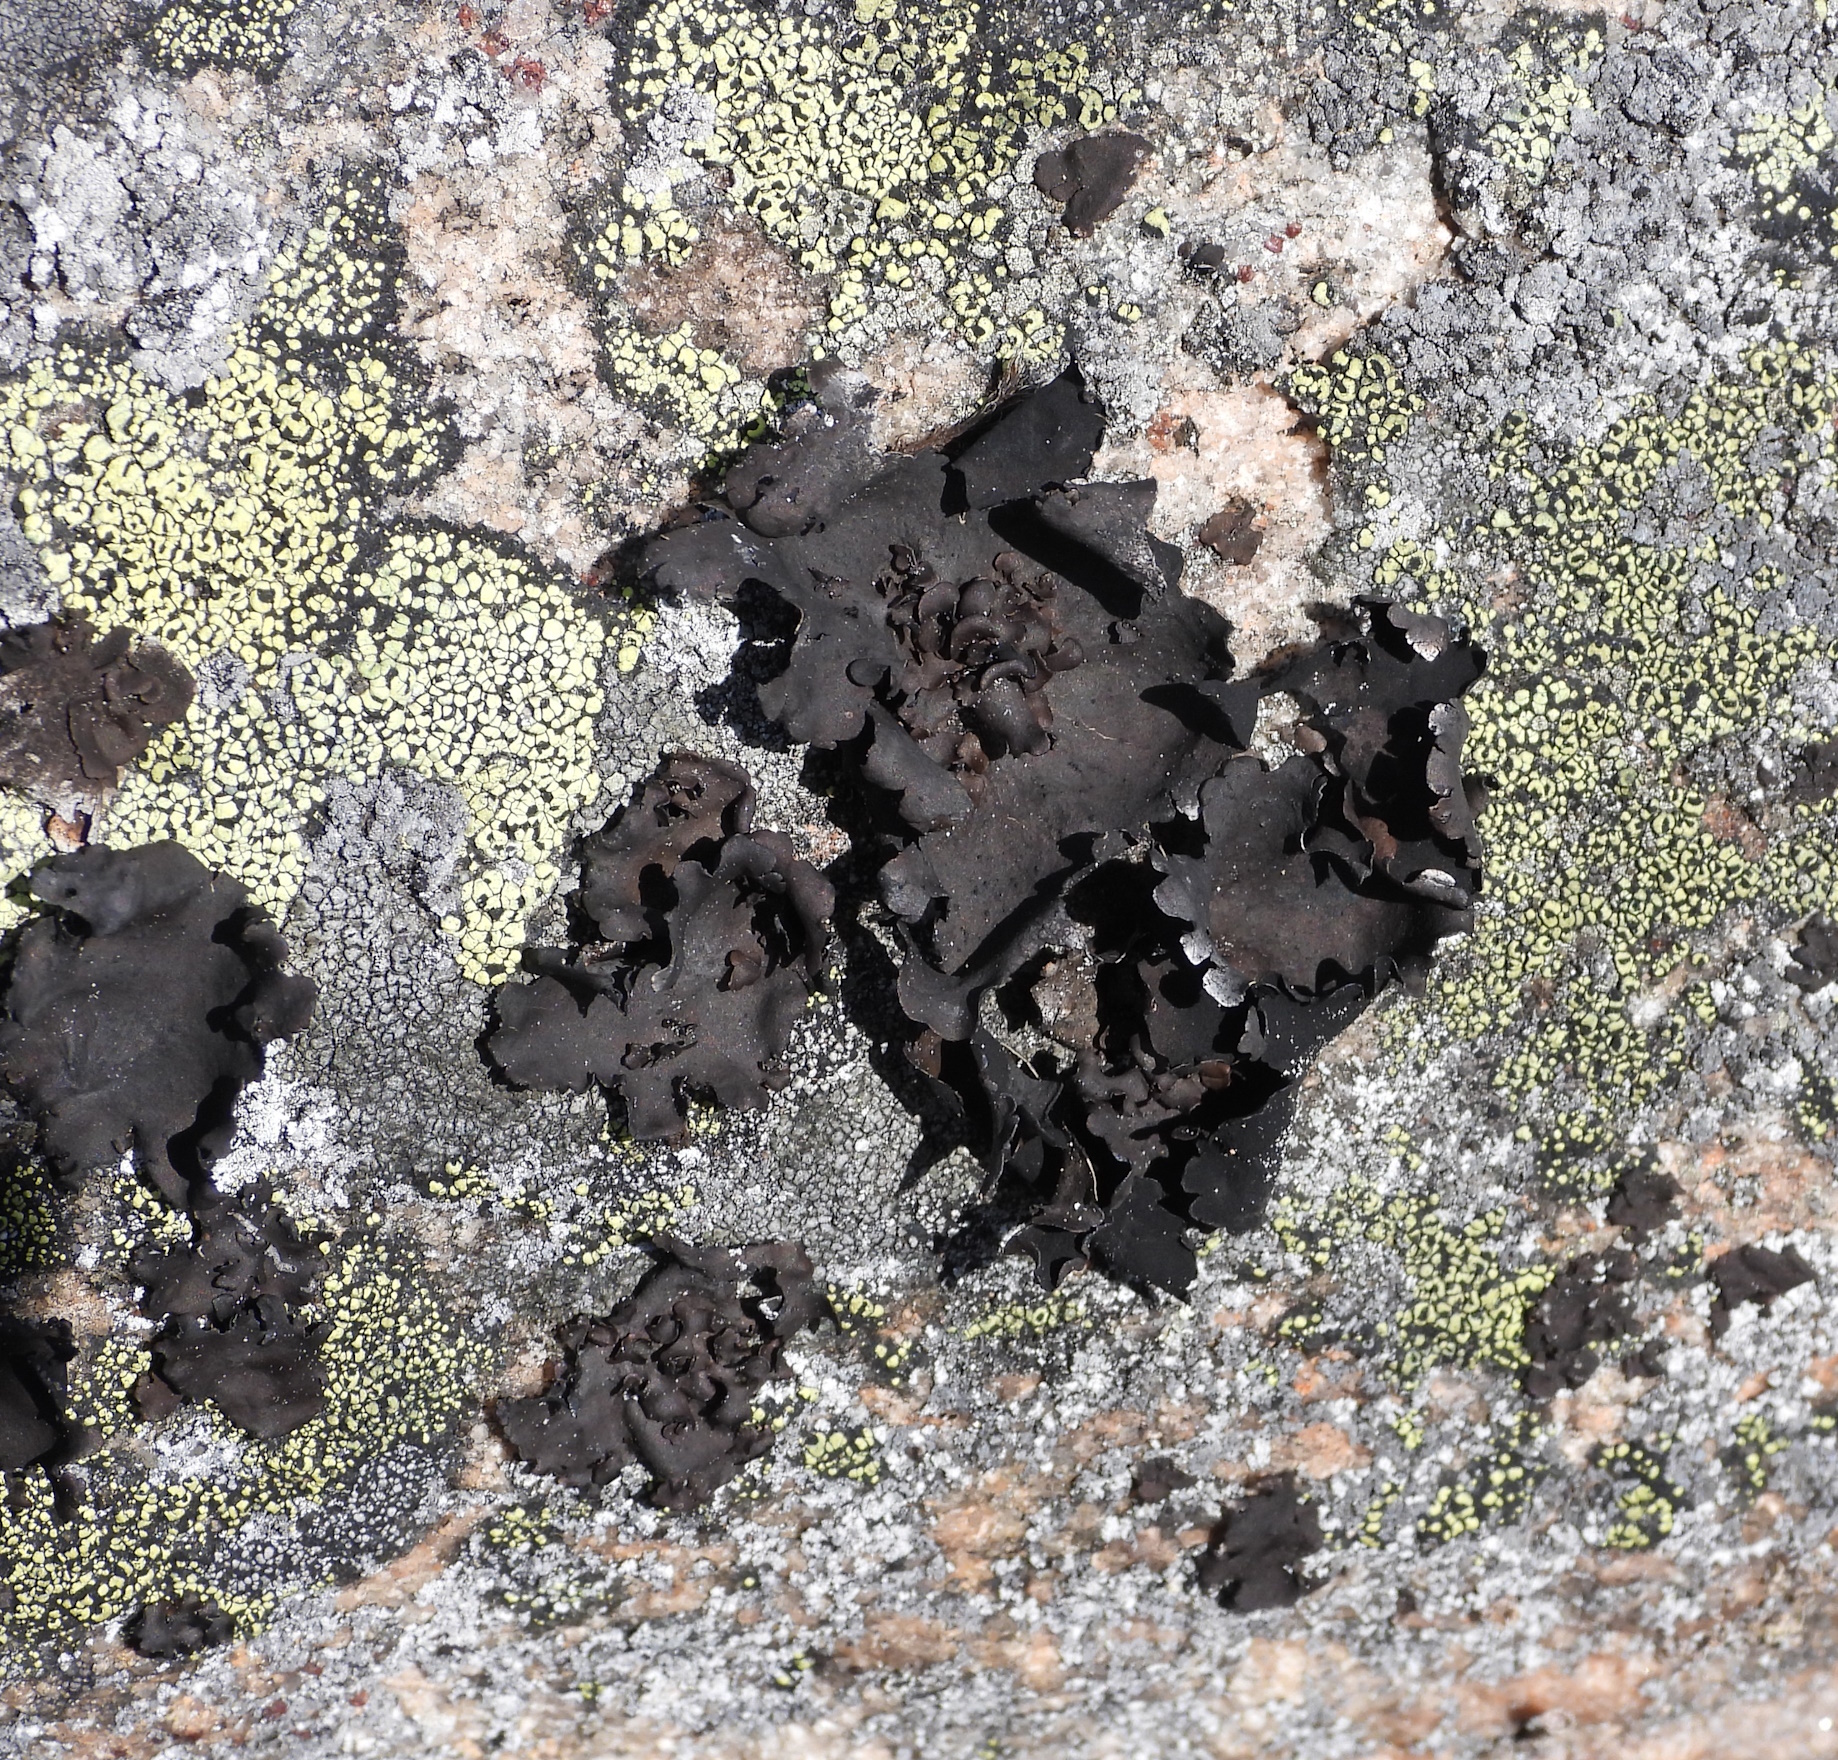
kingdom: Fungi
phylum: Ascomycota
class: Lecanoromycetes
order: Umbilicariales
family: Umbilicariaceae
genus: Umbilicaria
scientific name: Umbilicaria polyphylla
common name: Petalled rocktripe lichen
